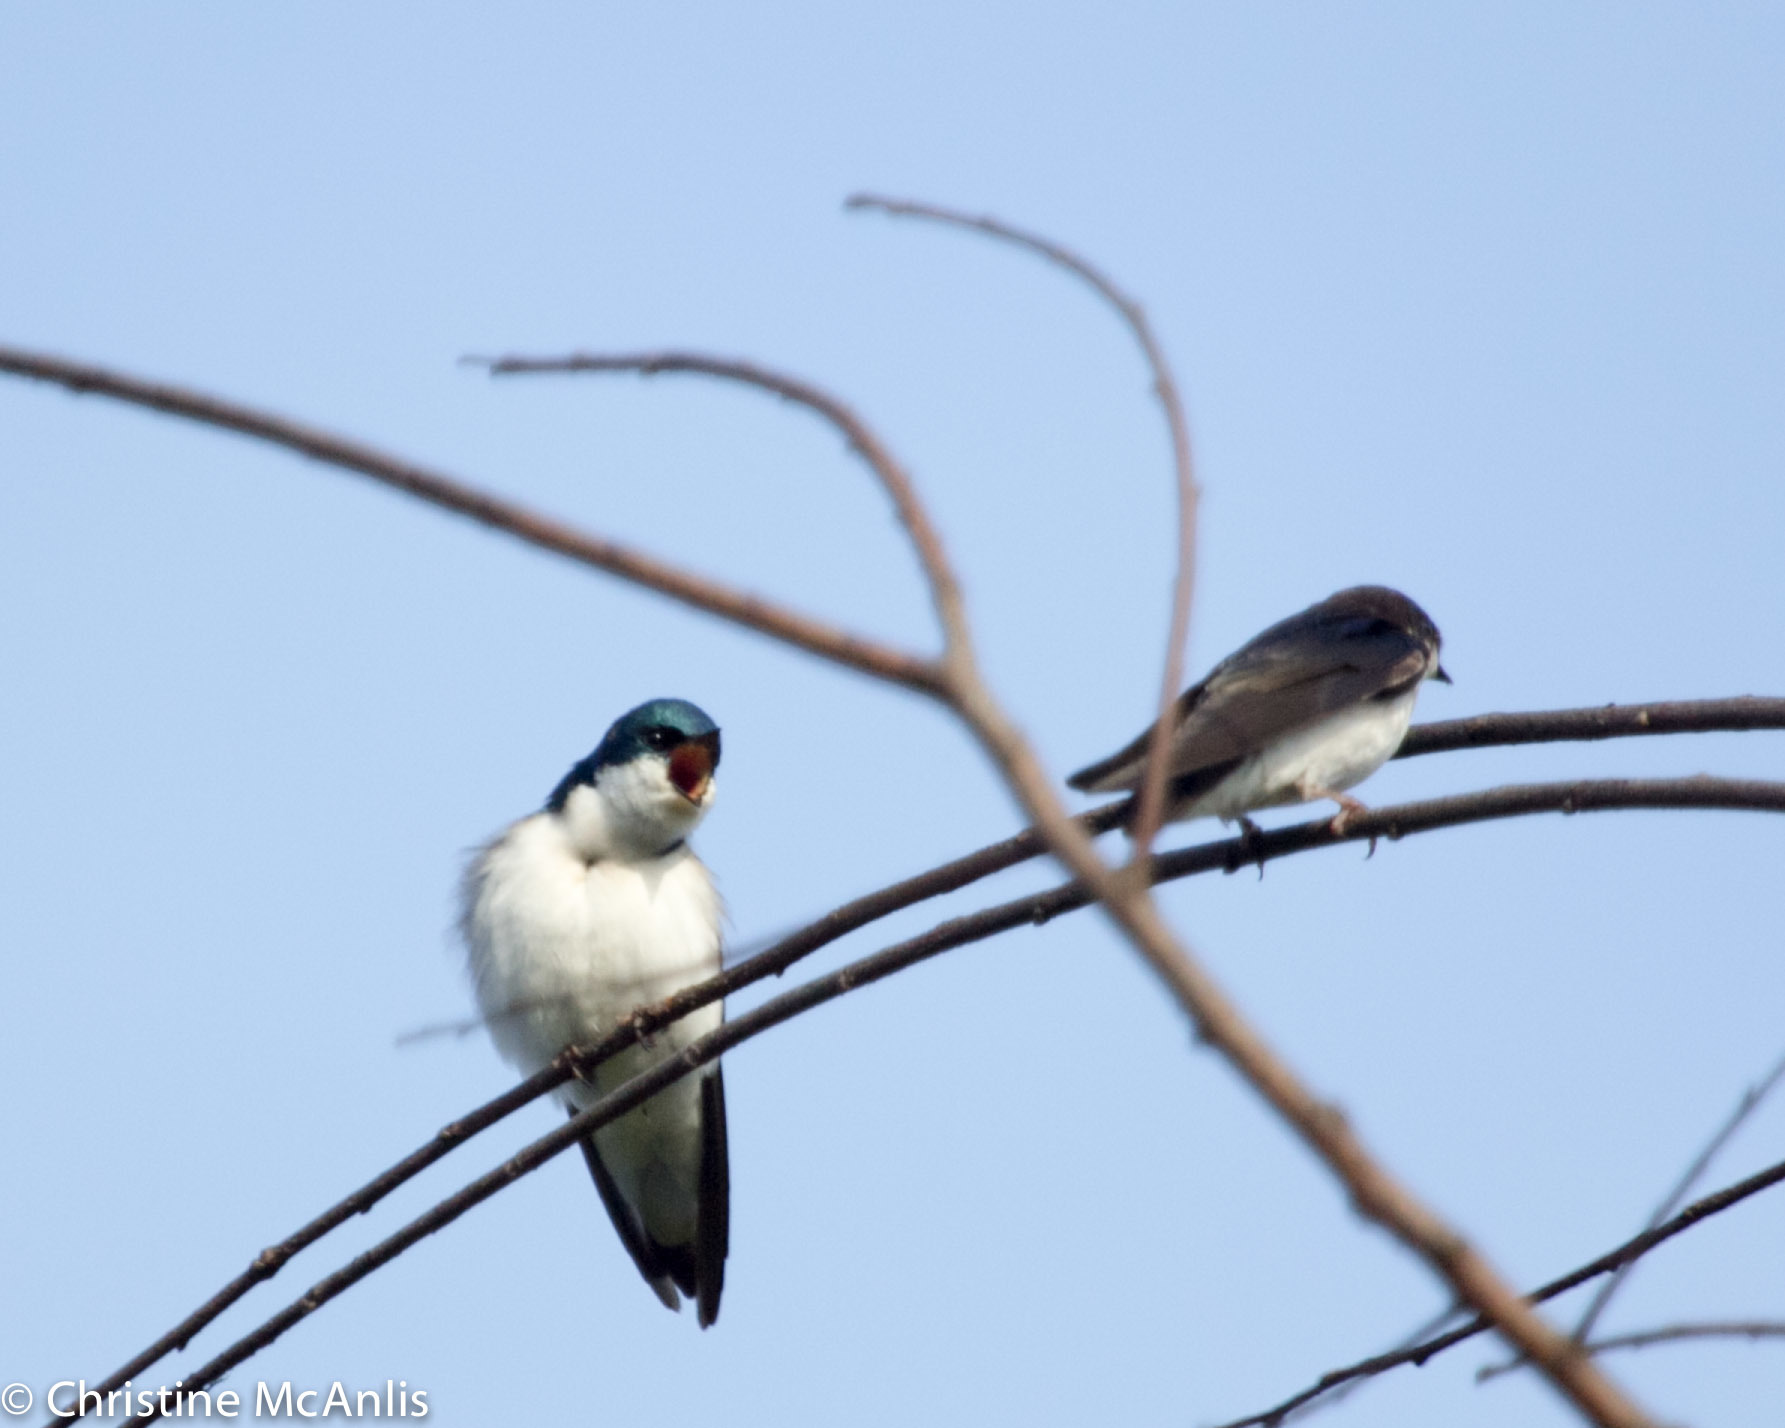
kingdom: Animalia
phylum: Chordata
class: Aves
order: Passeriformes
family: Hirundinidae
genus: Tachycineta
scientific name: Tachycineta bicolor
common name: Tree swallow
